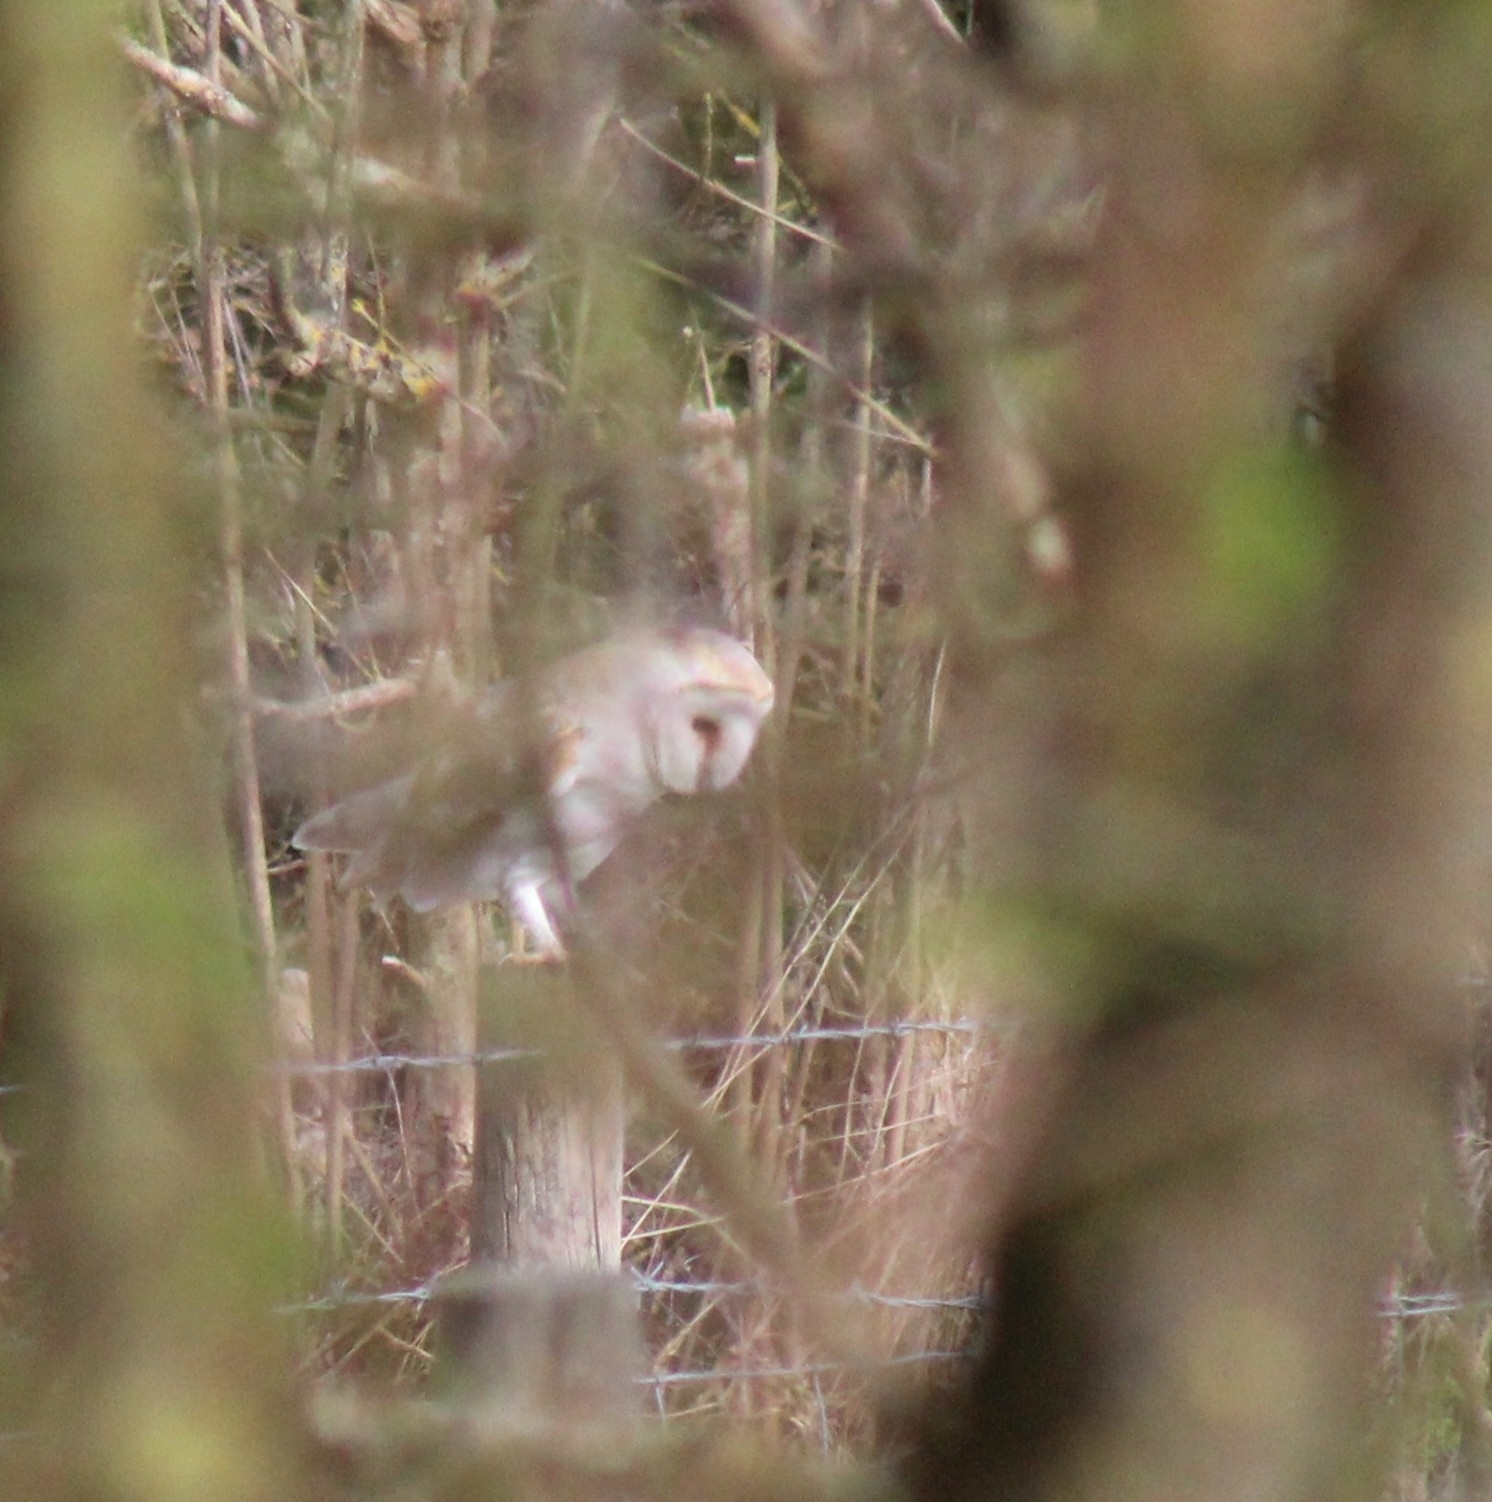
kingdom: Animalia
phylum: Chordata
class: Aves
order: Strigiformes
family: Tytonidae
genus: Tyto
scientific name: Tyto alba
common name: Barn owl
